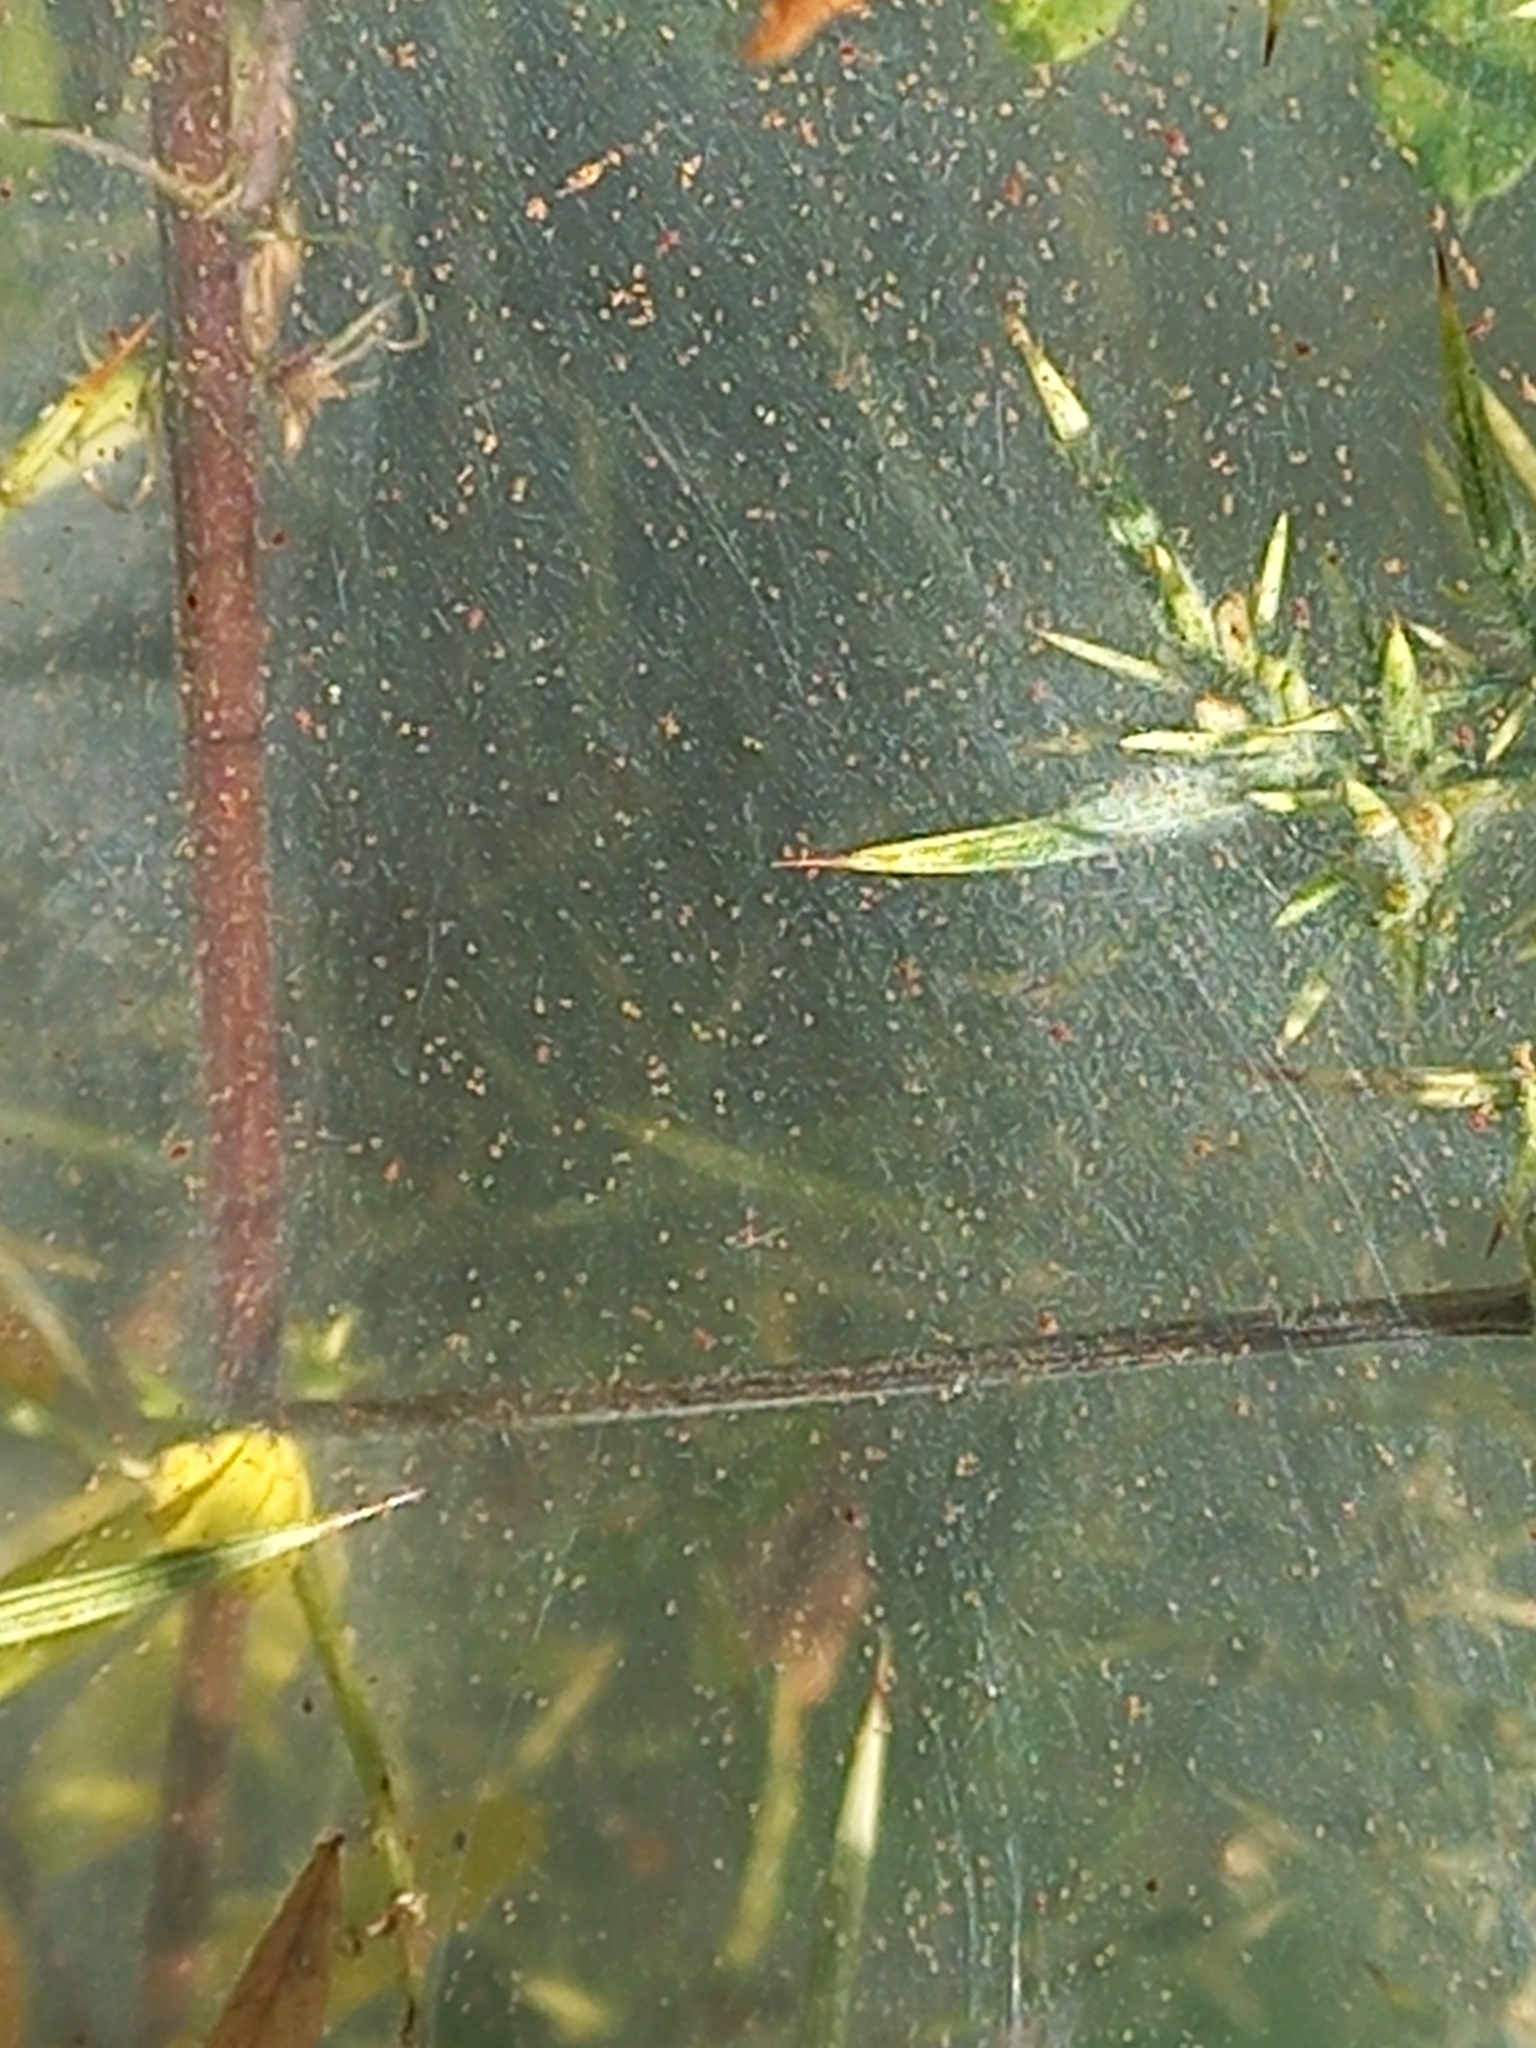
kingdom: Animalia
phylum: Arthropoda
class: Arachnida
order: Trombidiformes
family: Tetranychidae
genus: Tetranychus
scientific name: Tetranychus lintearius
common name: Gorse spider mite
